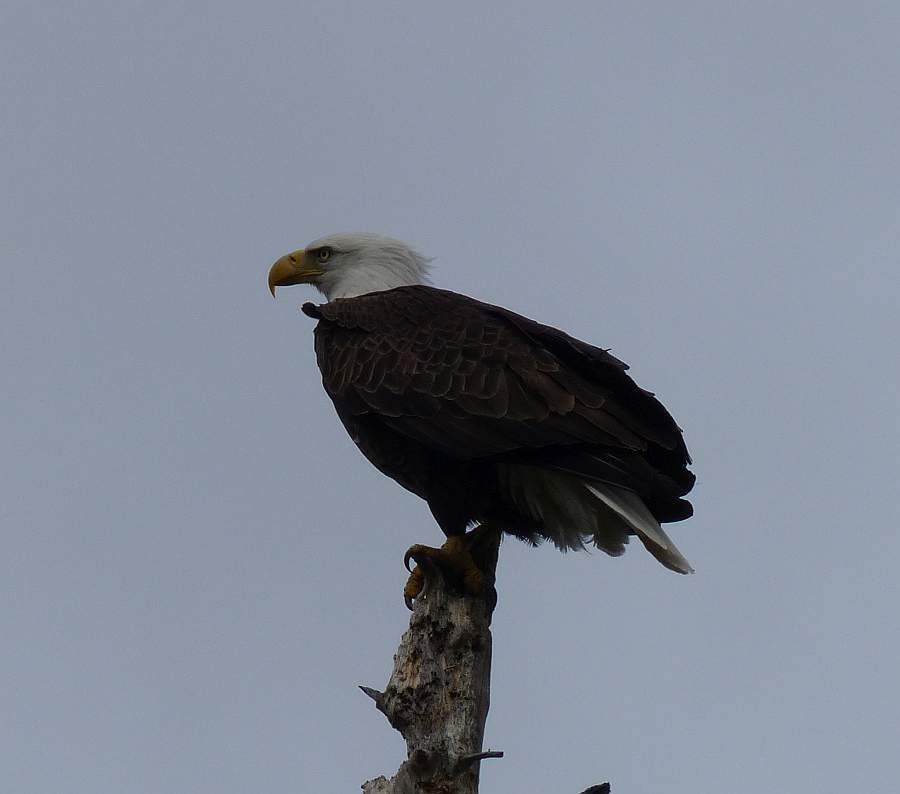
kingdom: Animalia
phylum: Chordata
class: Aves
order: Accipitriformes
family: Accipitridae
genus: Haliaeetus
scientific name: Haliaeetus leucocephalus
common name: Bald eagle
